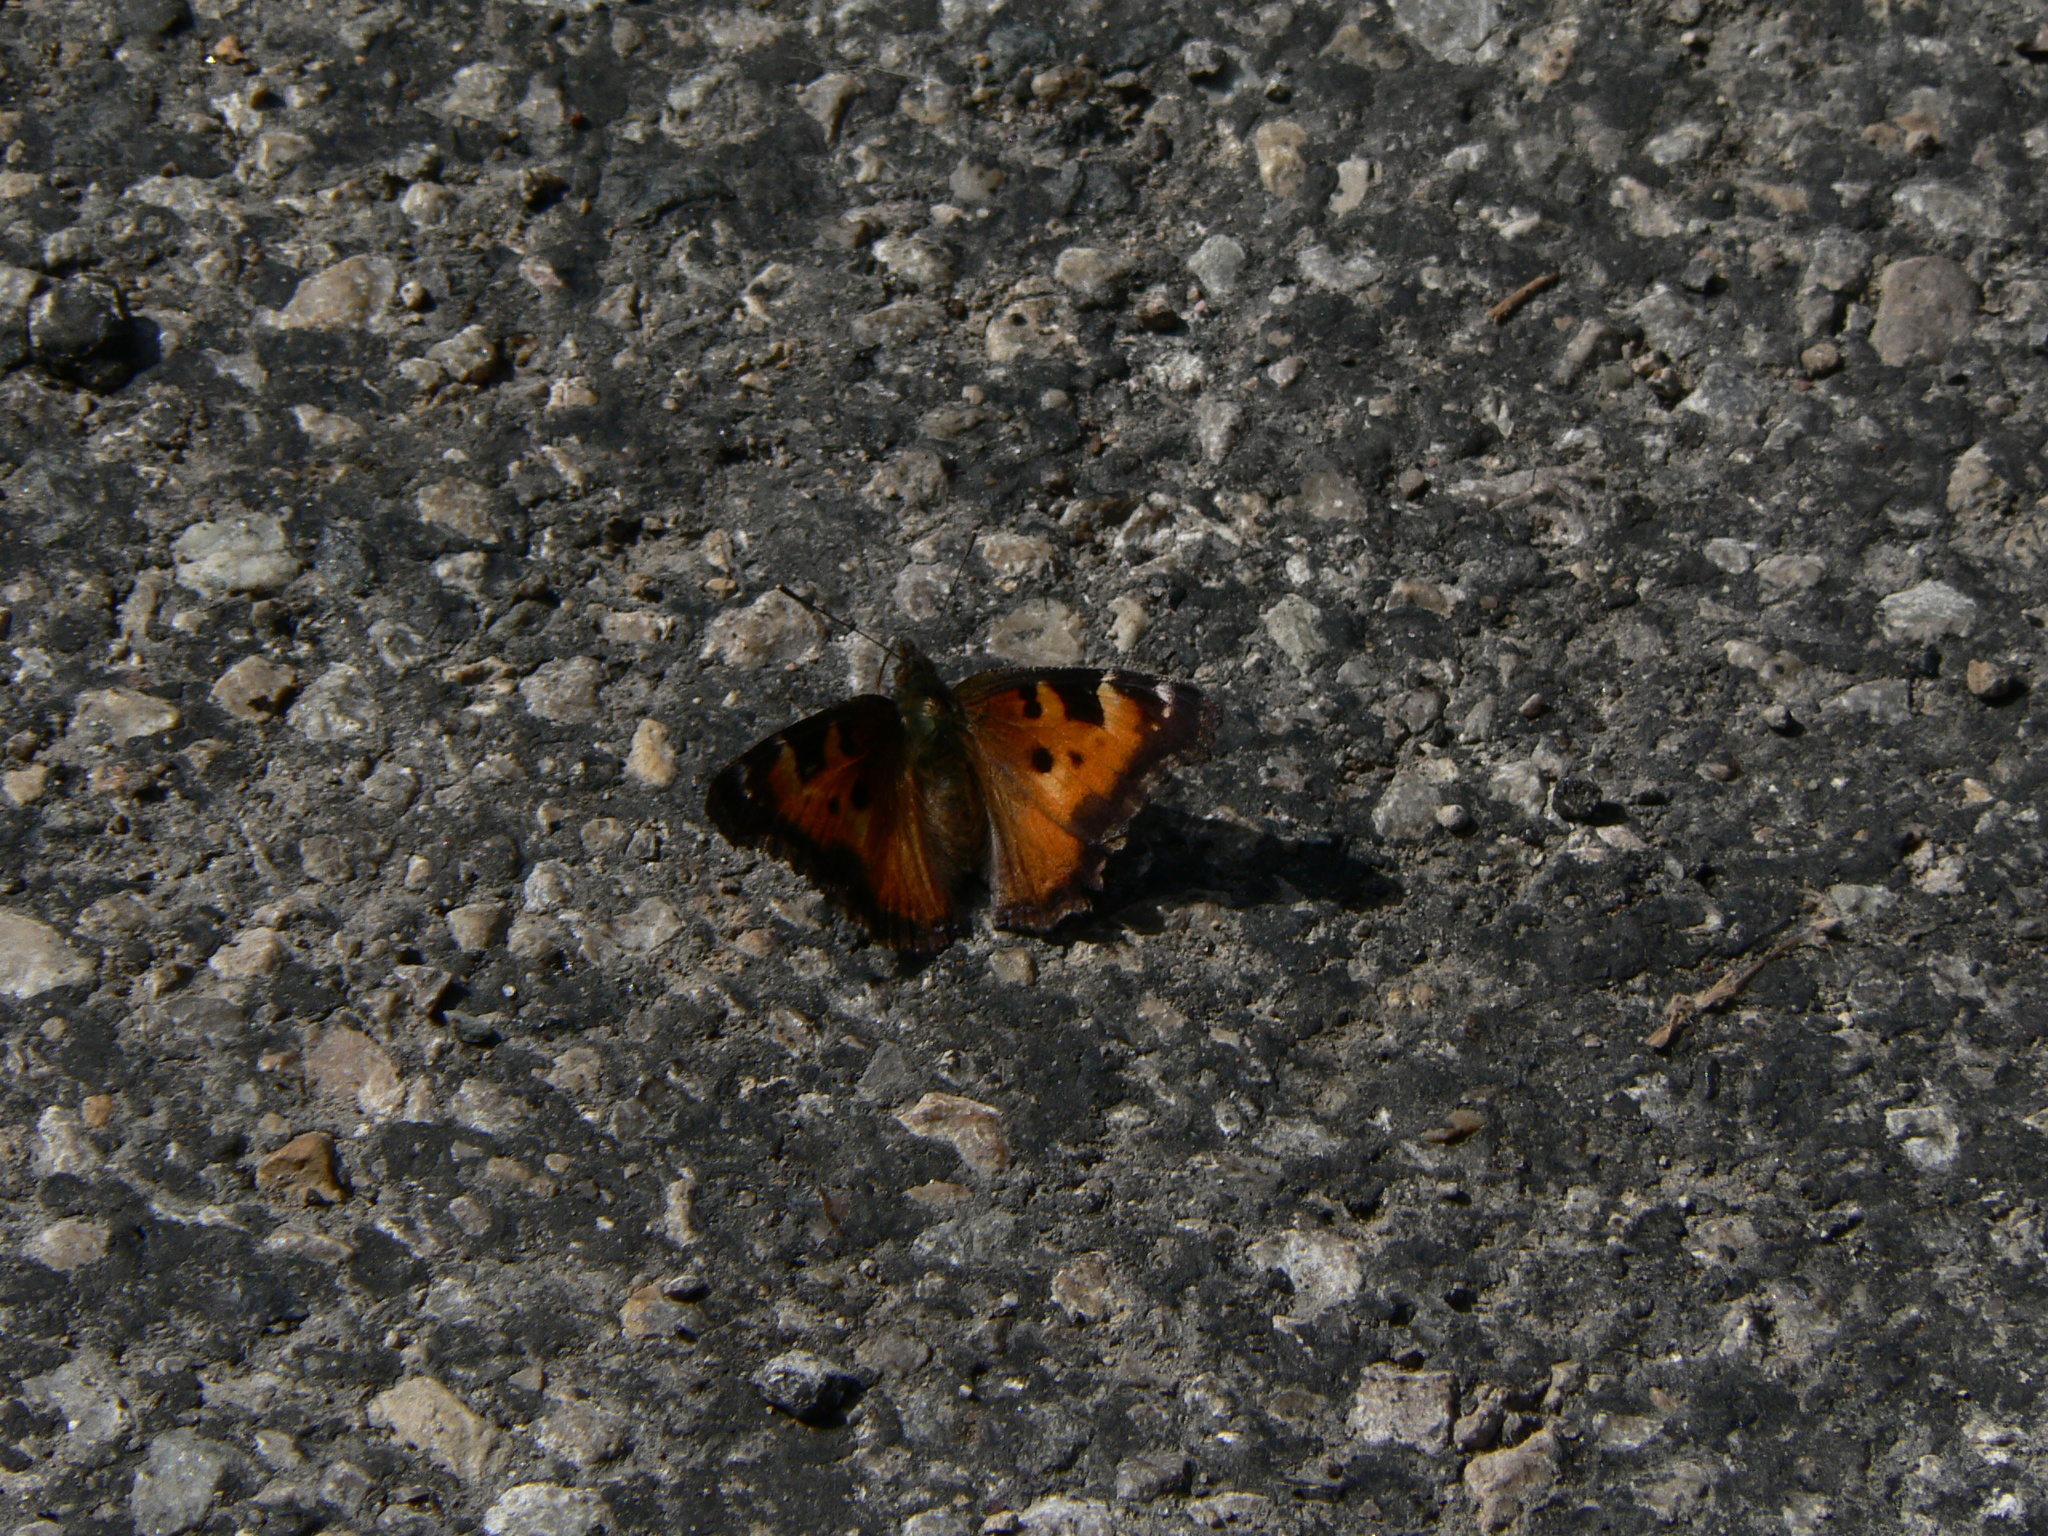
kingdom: Animalia
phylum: Arthropoda
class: Insecta
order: Lepidoptera
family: Nymphalidae
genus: Nymphalis
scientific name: Nymphalis californica
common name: California tortoiseshell
